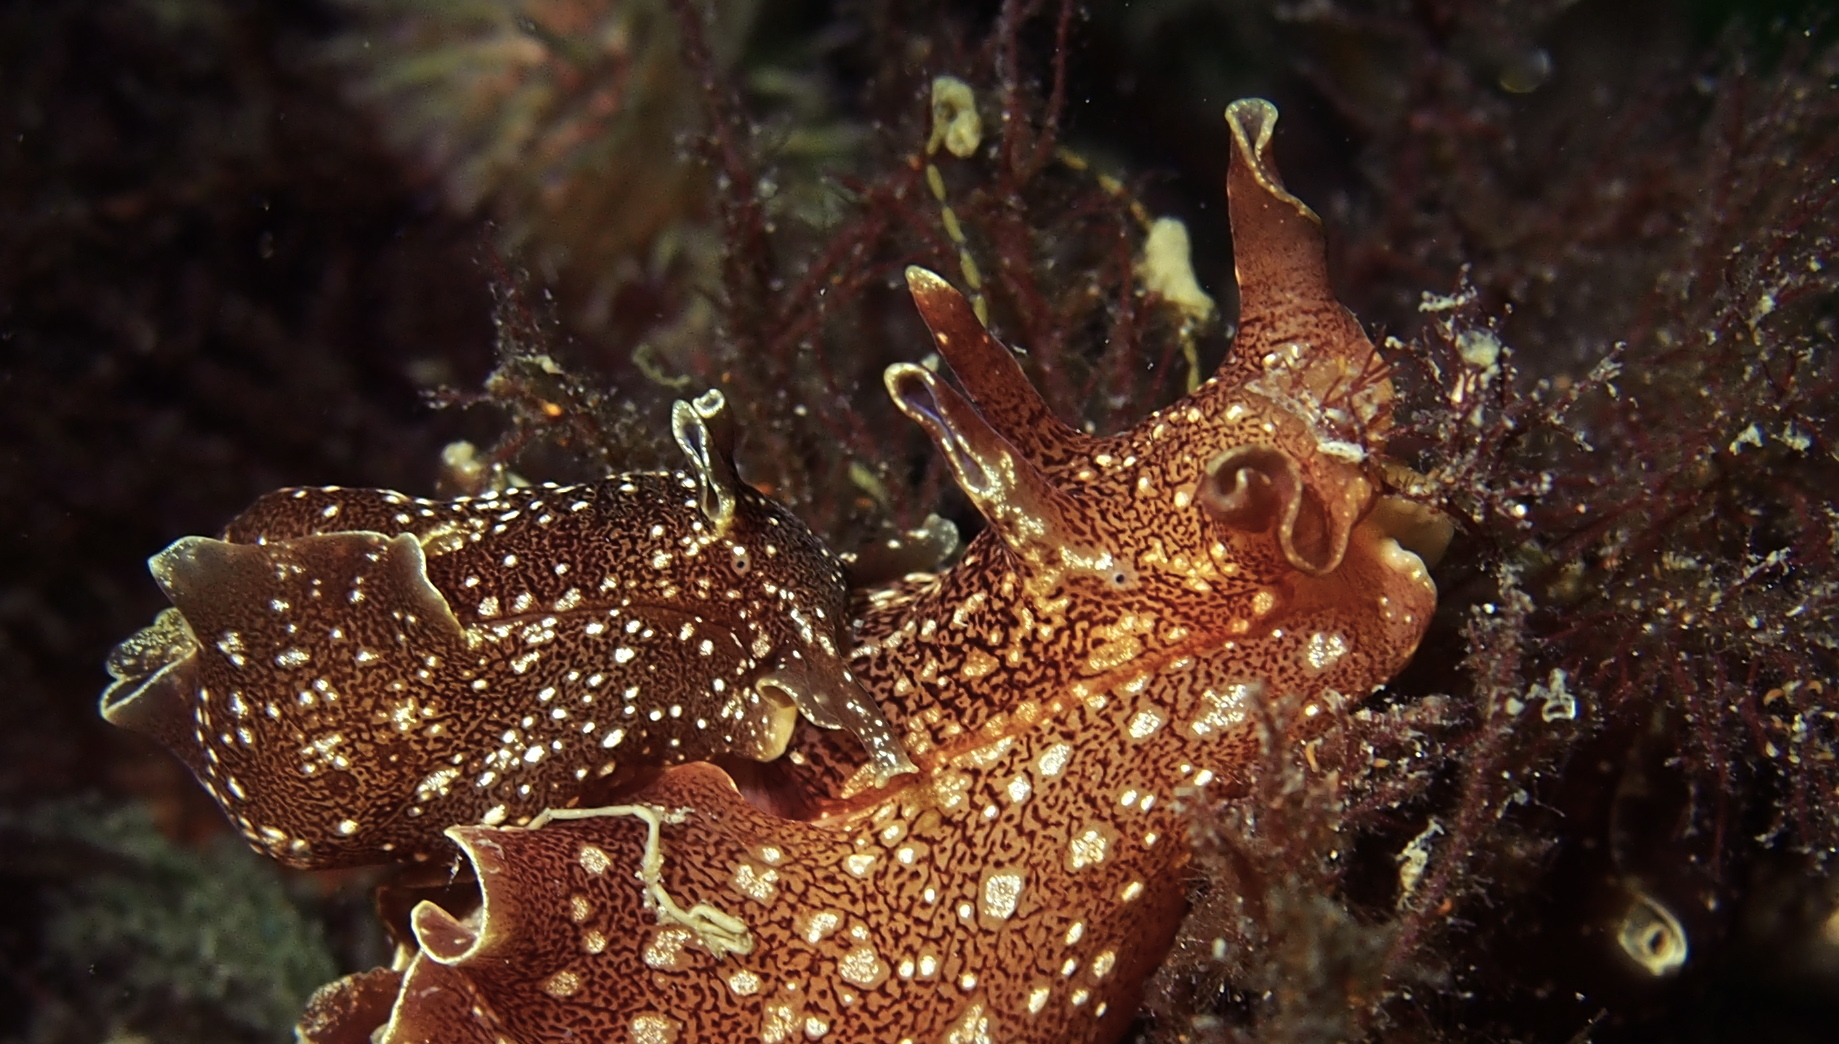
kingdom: Animalia
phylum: Mollusca
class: Gastropoda
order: Aplysiida
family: Aplysiidae
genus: Aplysia
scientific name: Aplysia punctata
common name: Common sea hare
